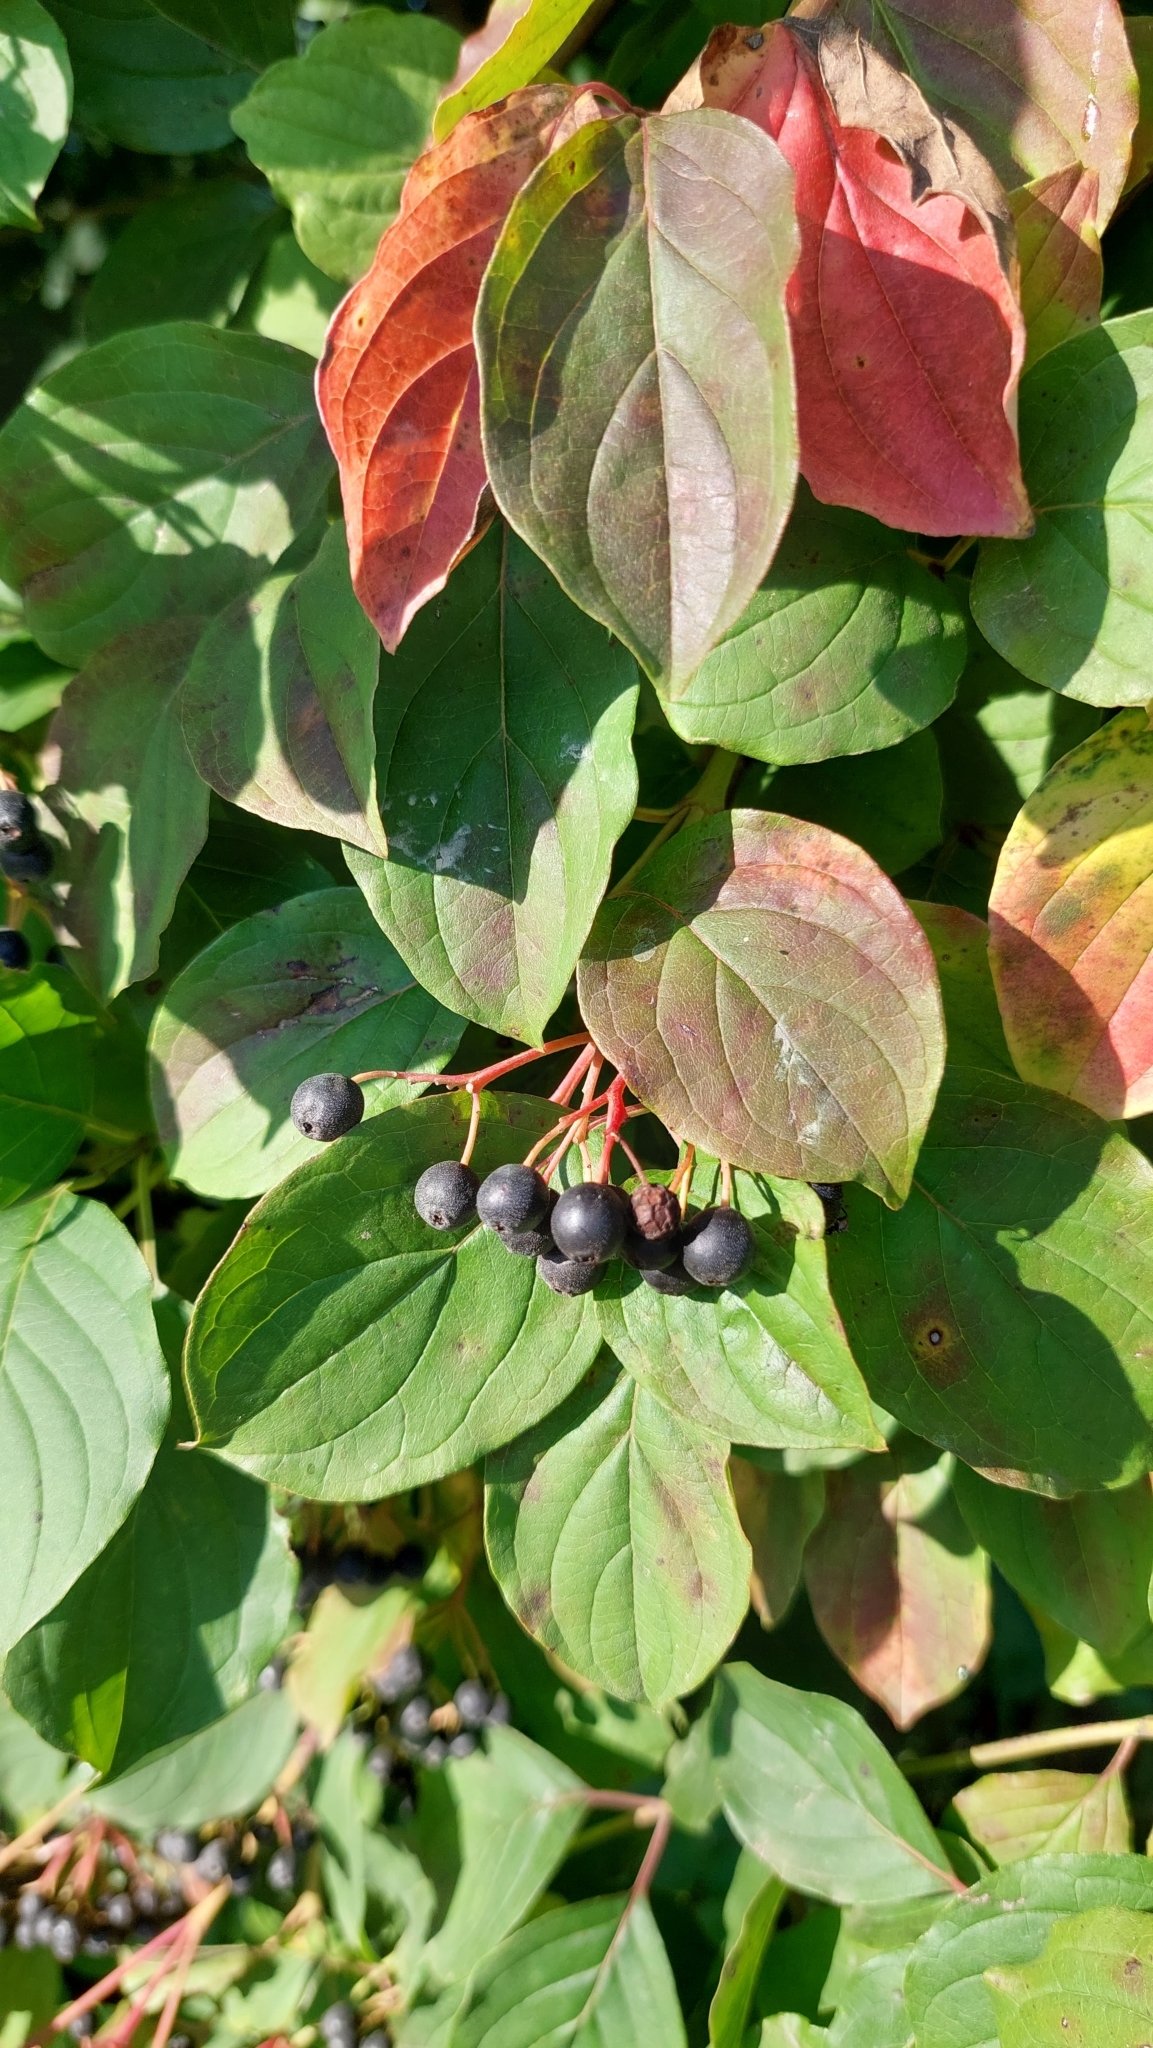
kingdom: Plantae
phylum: Tracheophyta
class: Magnoliopsida
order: Cornales
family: Cornaceae
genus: Cornus
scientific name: Cornus sanguinea
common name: Dogwood
